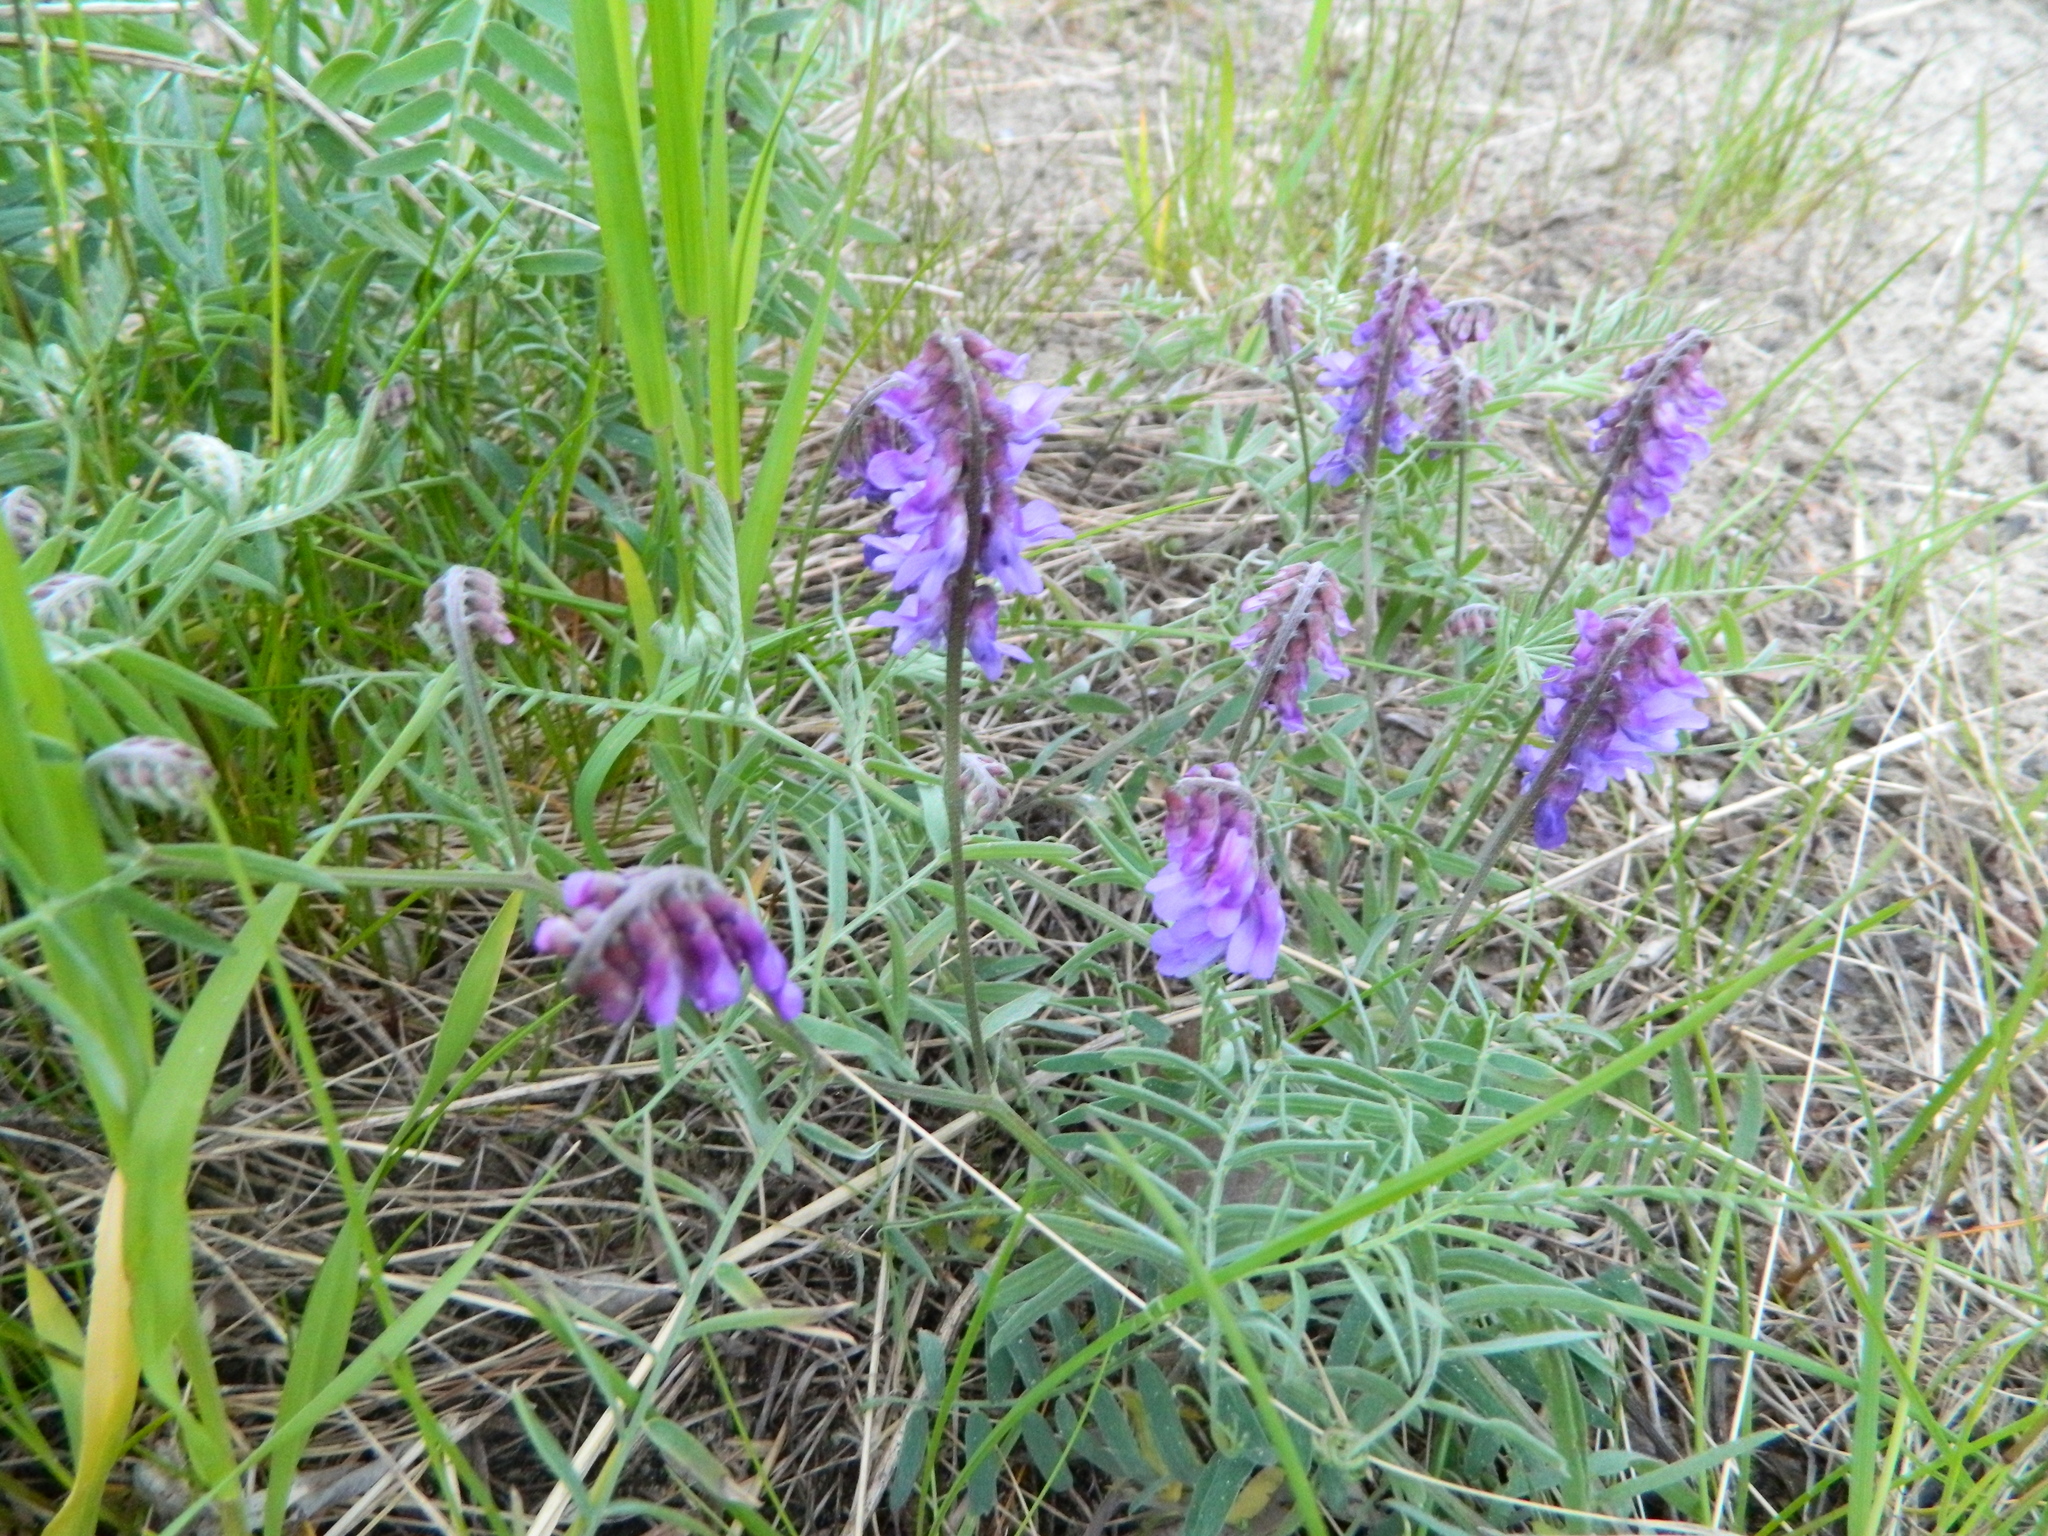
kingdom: Plantae
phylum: Tracheophyta
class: Magnoliopsida
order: Fabales
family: Fabaceae
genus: Vicia
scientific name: Vicia cracca
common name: Bird vetch
